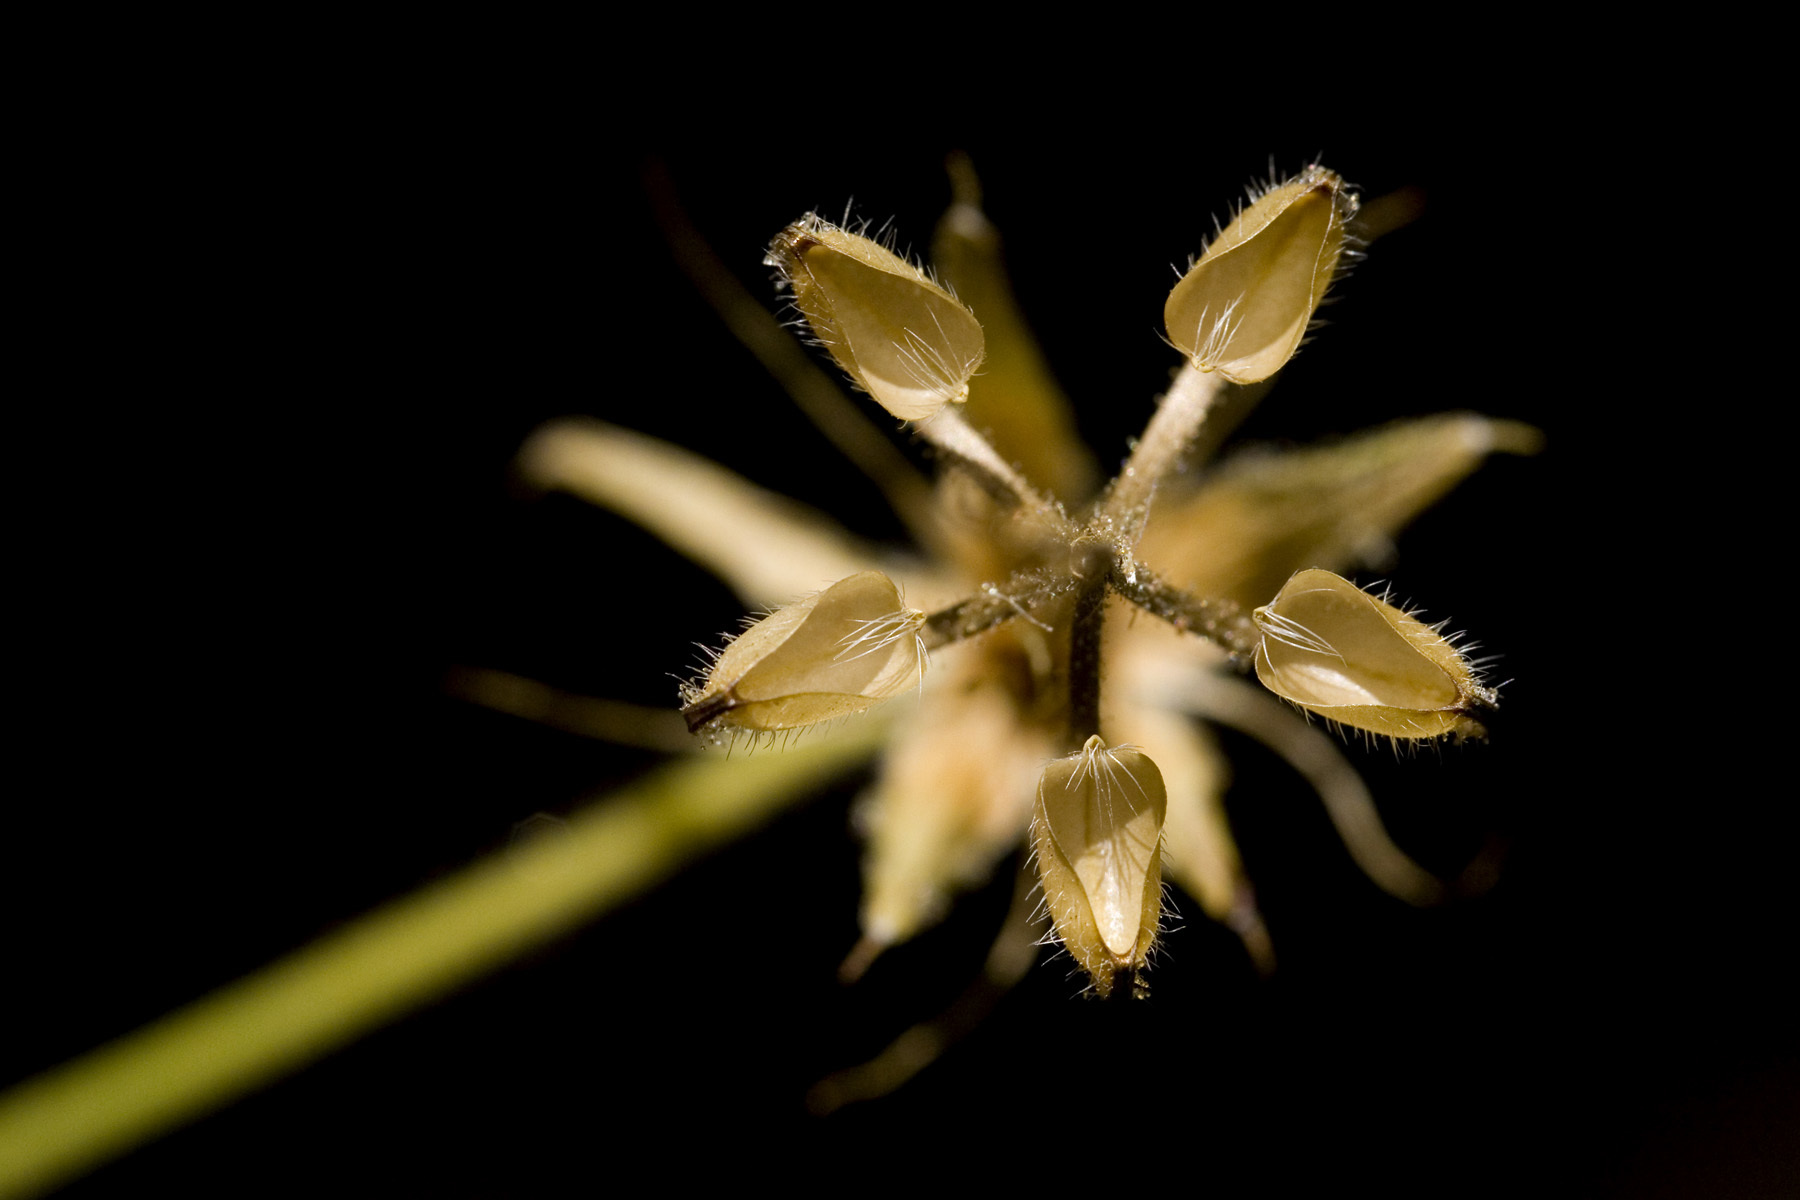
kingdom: Plantae
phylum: Tracheophyta
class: Magnoliopsida
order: Geraniales
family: Geraniaceae
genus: Geranium
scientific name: Geranium dodecatheoides
